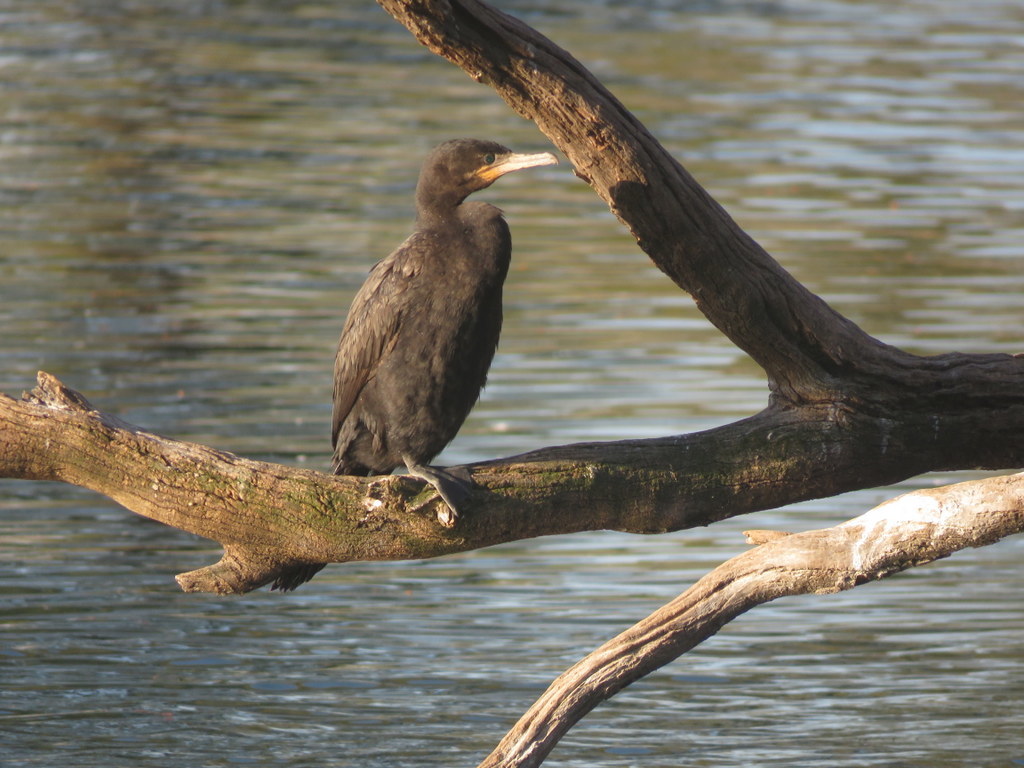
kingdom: Animalia
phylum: Chordata
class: Aves
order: Suliformes
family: Phalacrocoracidae
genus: Phalacrocorax
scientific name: Phalacrocorax brasilianus
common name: Neotropic cormorant
